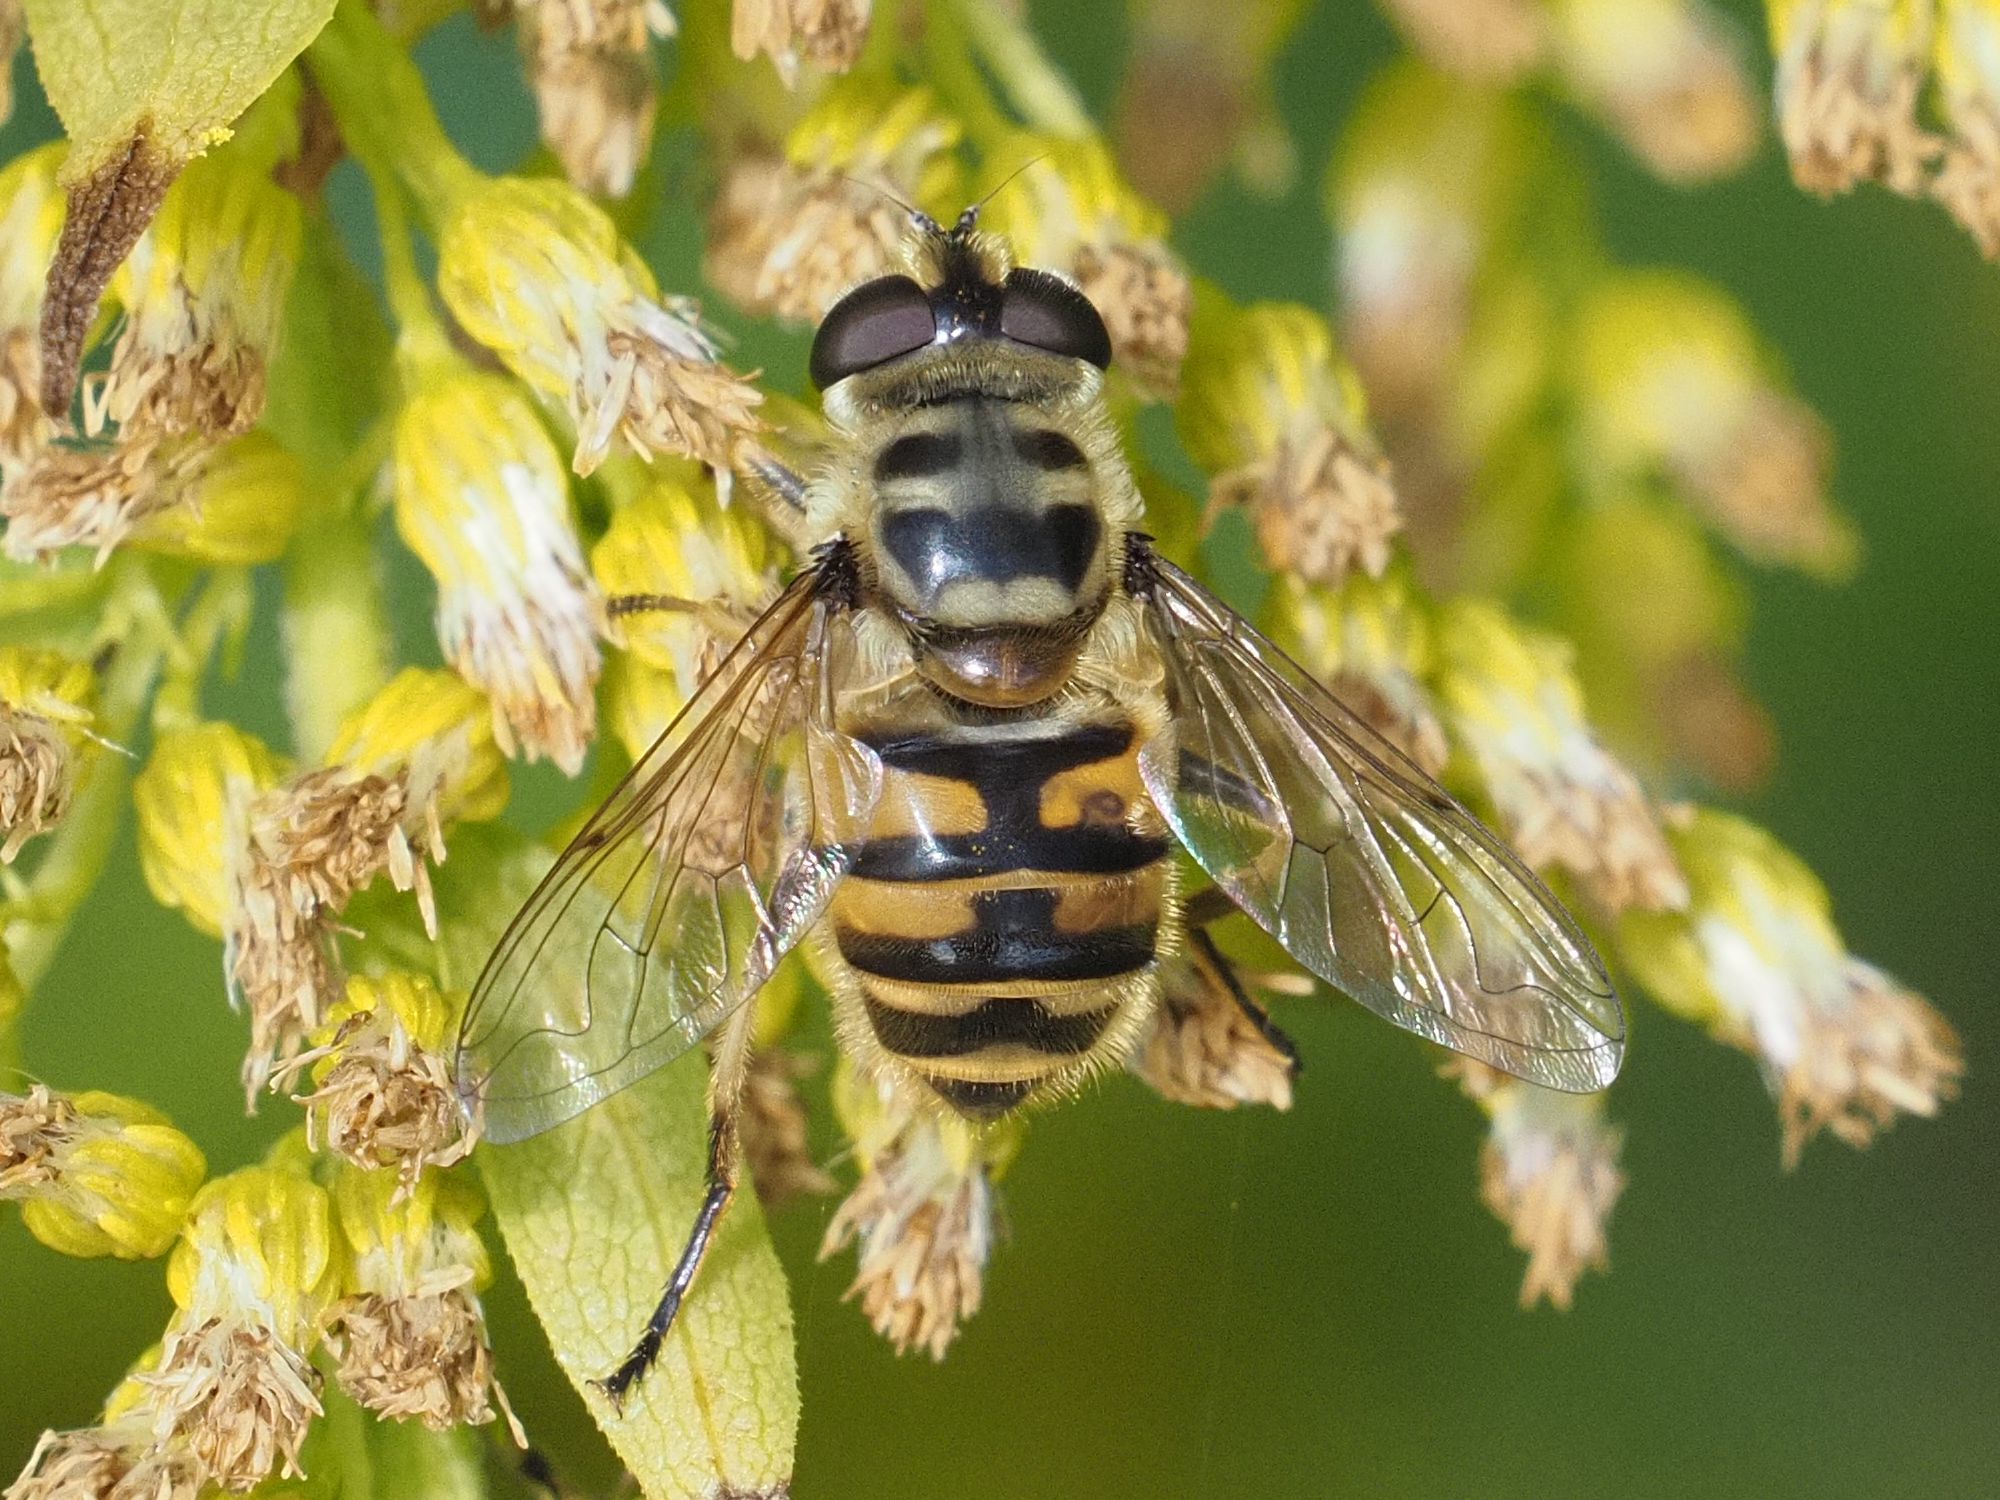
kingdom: Animalia
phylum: Arthropoda
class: Insecta
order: Diptera
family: Syrphidae
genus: Myathropa
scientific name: Myathropa florea
